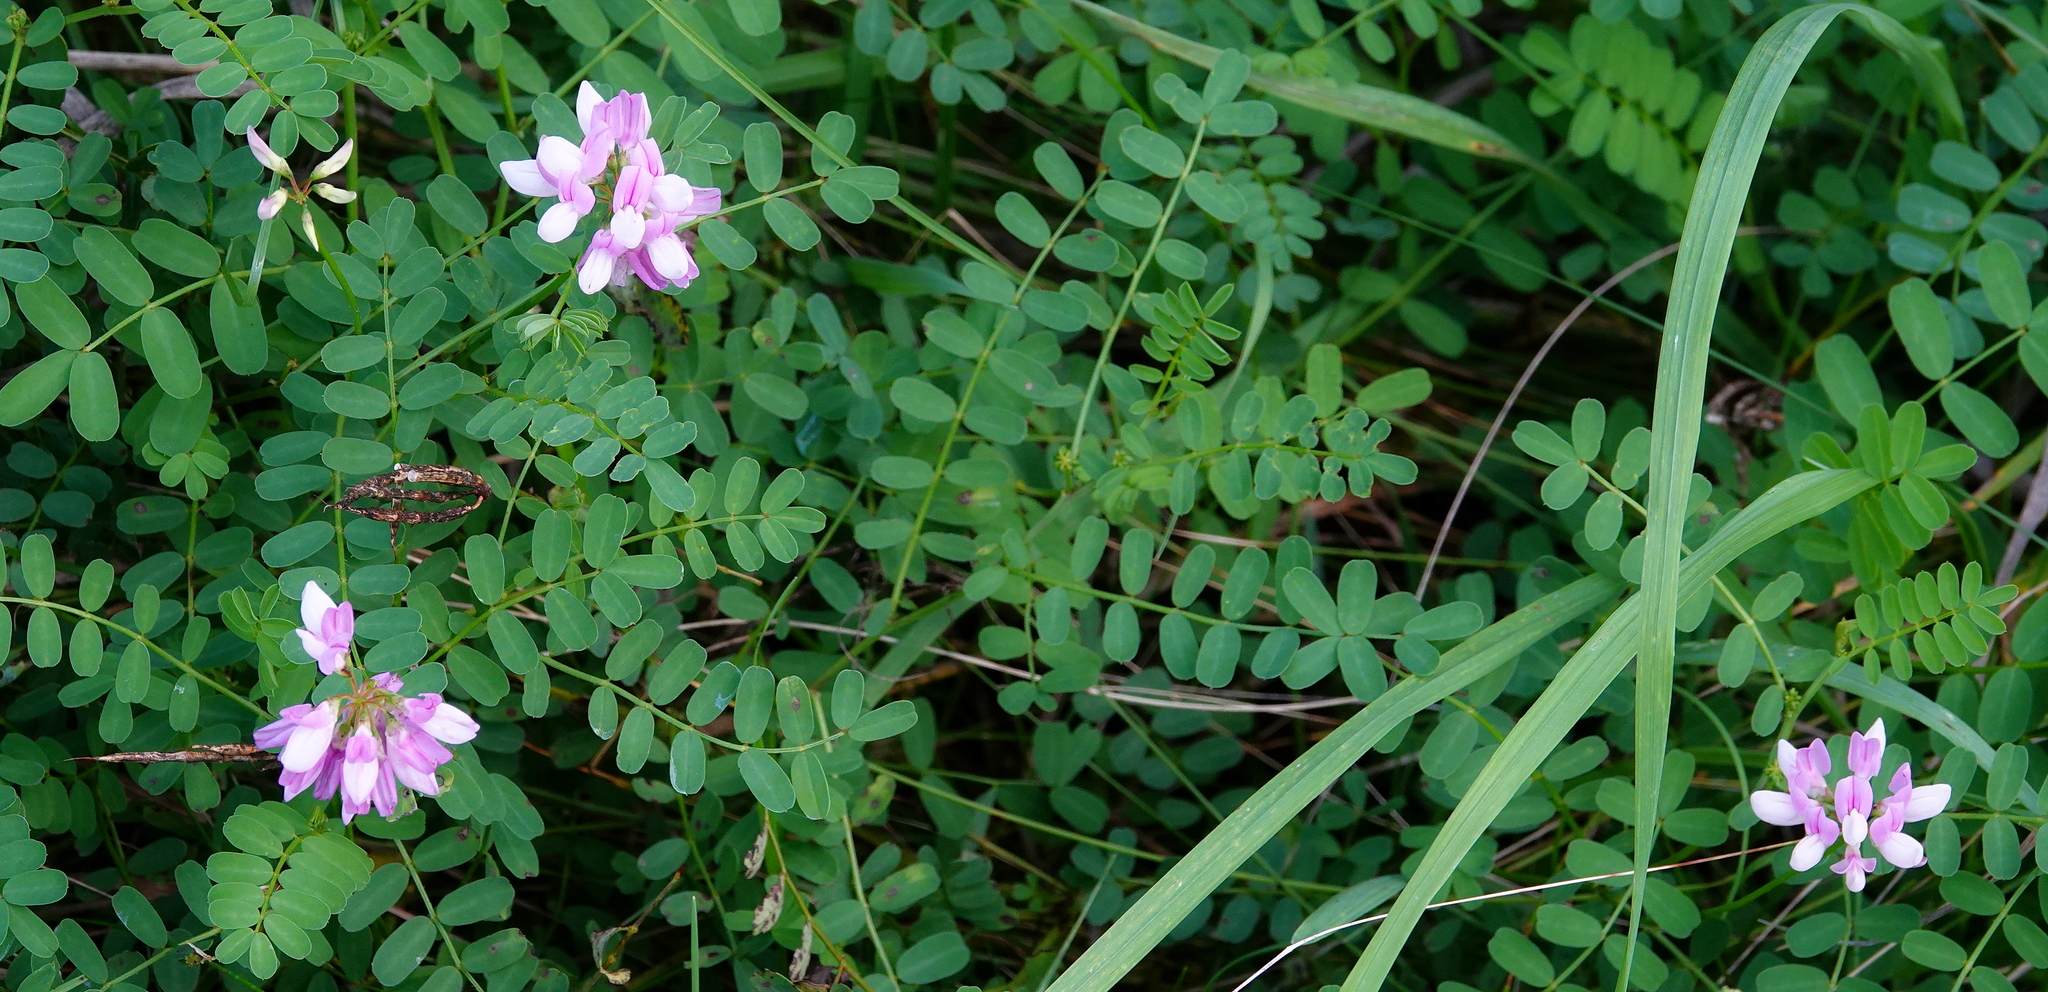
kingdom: Plantae
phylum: Tracheophyta
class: Magnoliopsida
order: Fabales
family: Fabaceae
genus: Coronilla
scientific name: Coronilla varia
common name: Crownvetch
